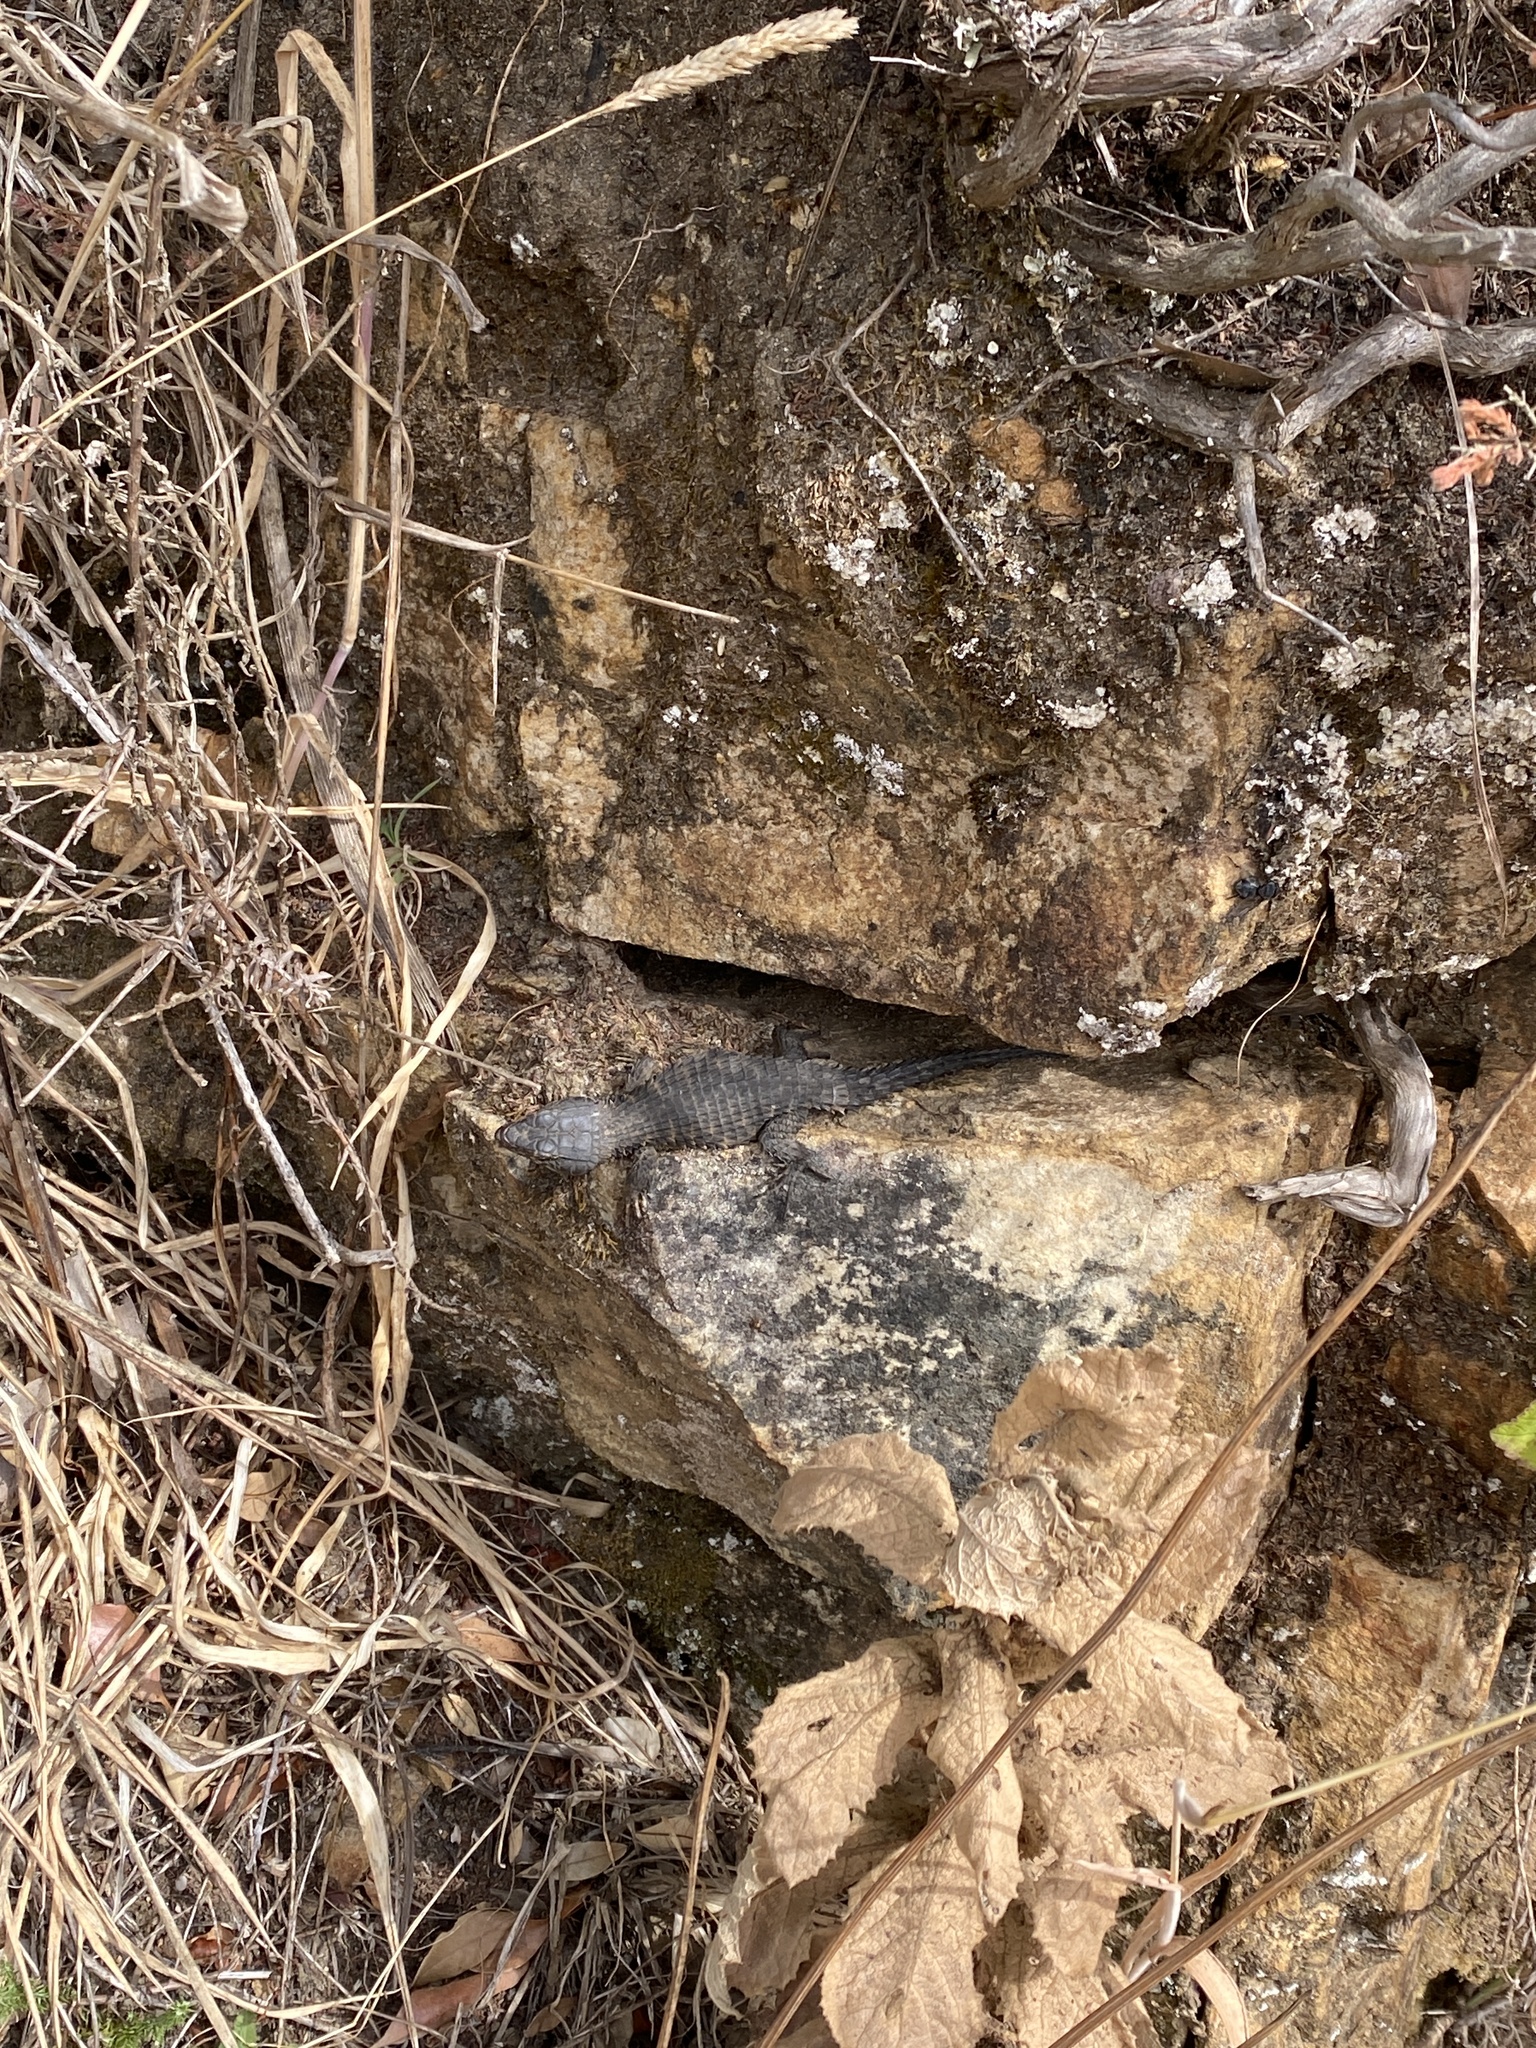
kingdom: Animalia
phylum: Chordata
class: Squamata
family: Cordylidae
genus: Cordylus
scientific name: Cordylus niger
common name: Black girdled lizard
